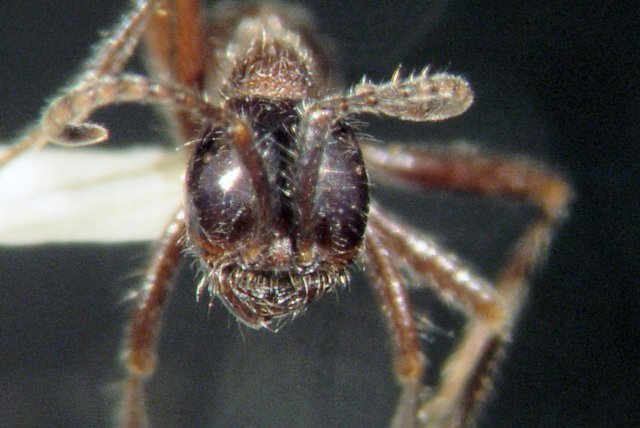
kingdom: Animalia
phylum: Arthropoda
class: Insecta
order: Hymenoptera
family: Formicidae
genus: Neivamyrmex
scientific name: Neivamyrmex melanocephalus
